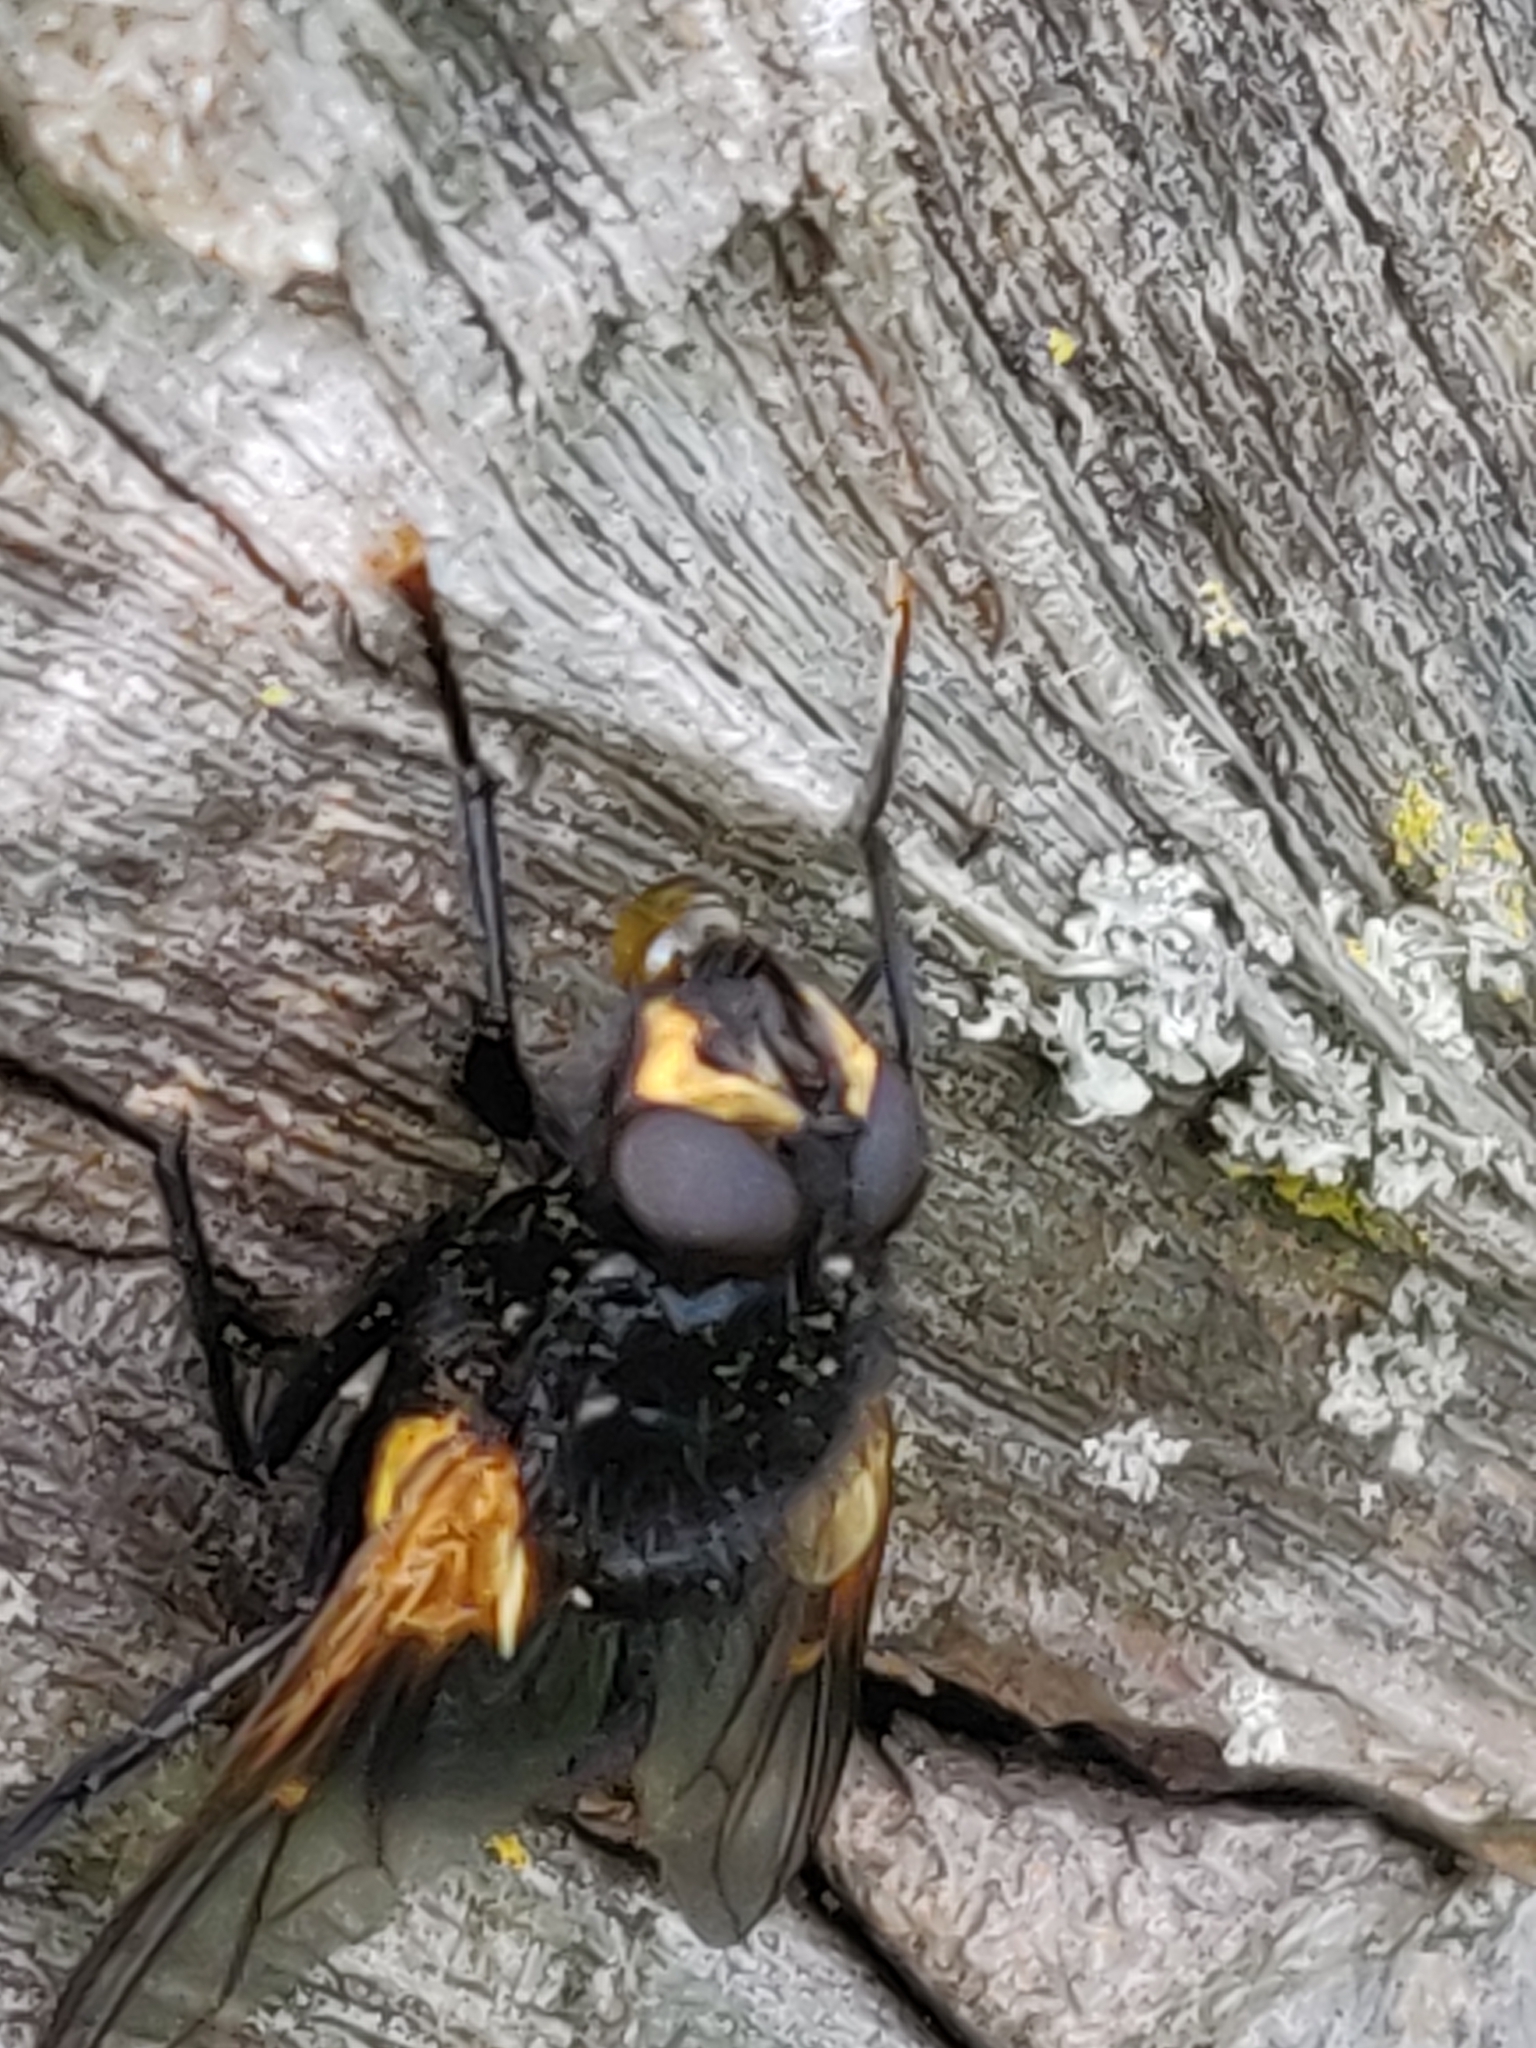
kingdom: Animalia
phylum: Arthropoda
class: Insecta
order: Diptera
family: Muscidae
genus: Mesembrina
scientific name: Mesembrina meridiana
